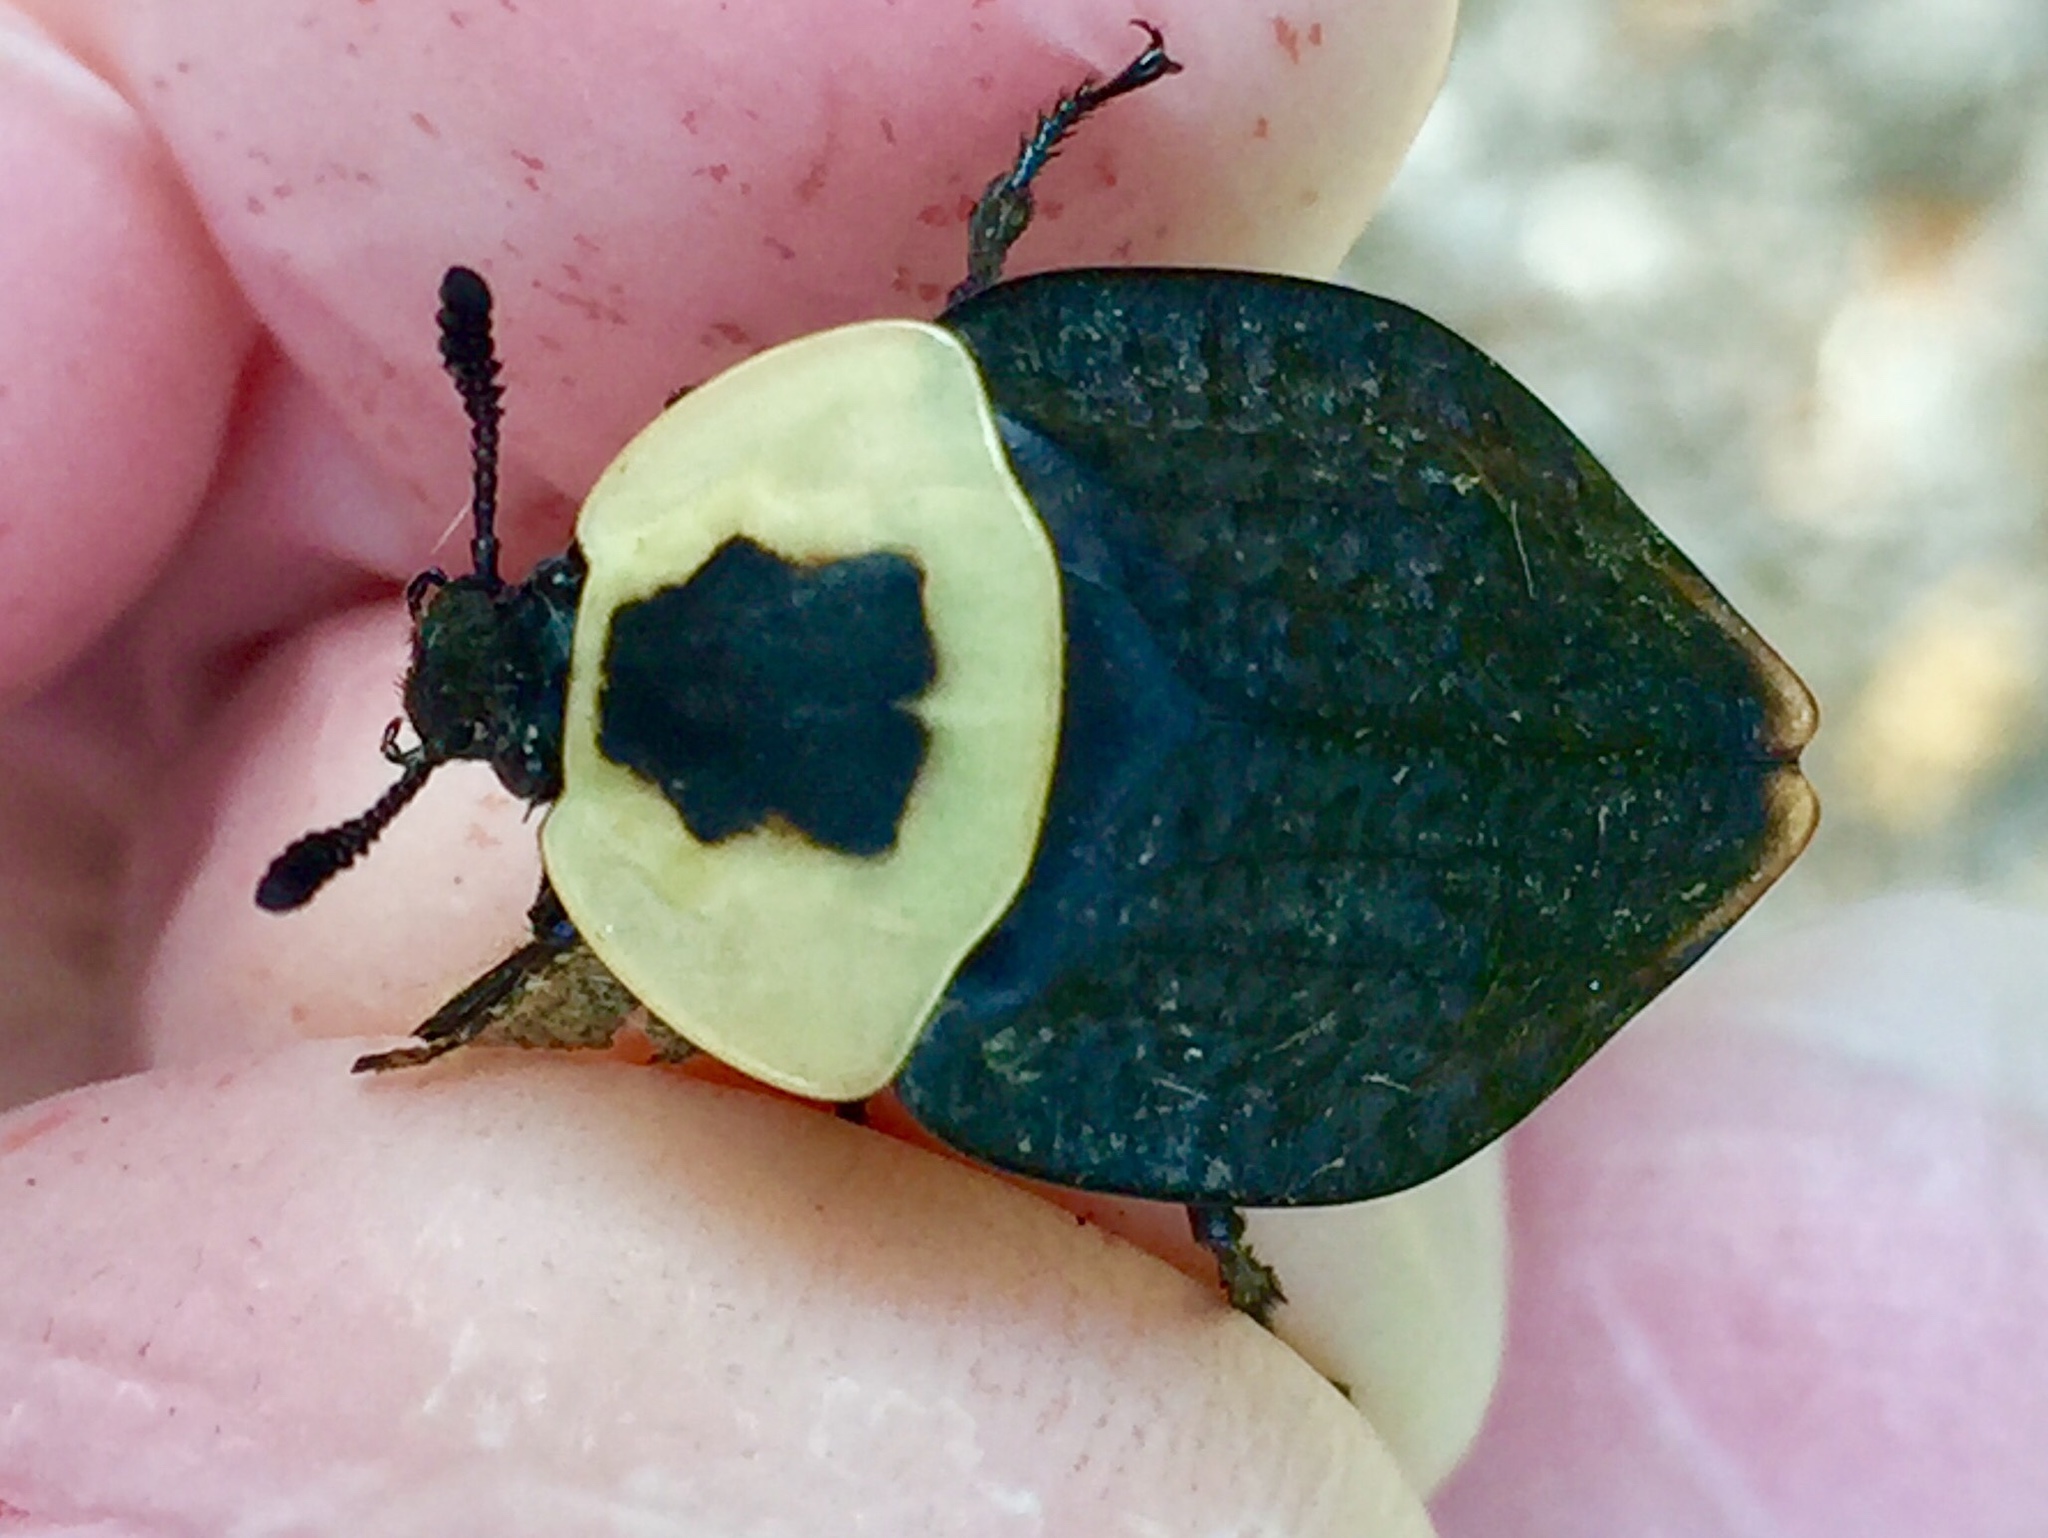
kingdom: Animalia
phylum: Arthropoda
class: Insecta
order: Coleoptera
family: Staphylinidae
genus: Necrophila
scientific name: Necrophila americana
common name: American carrion beetle
